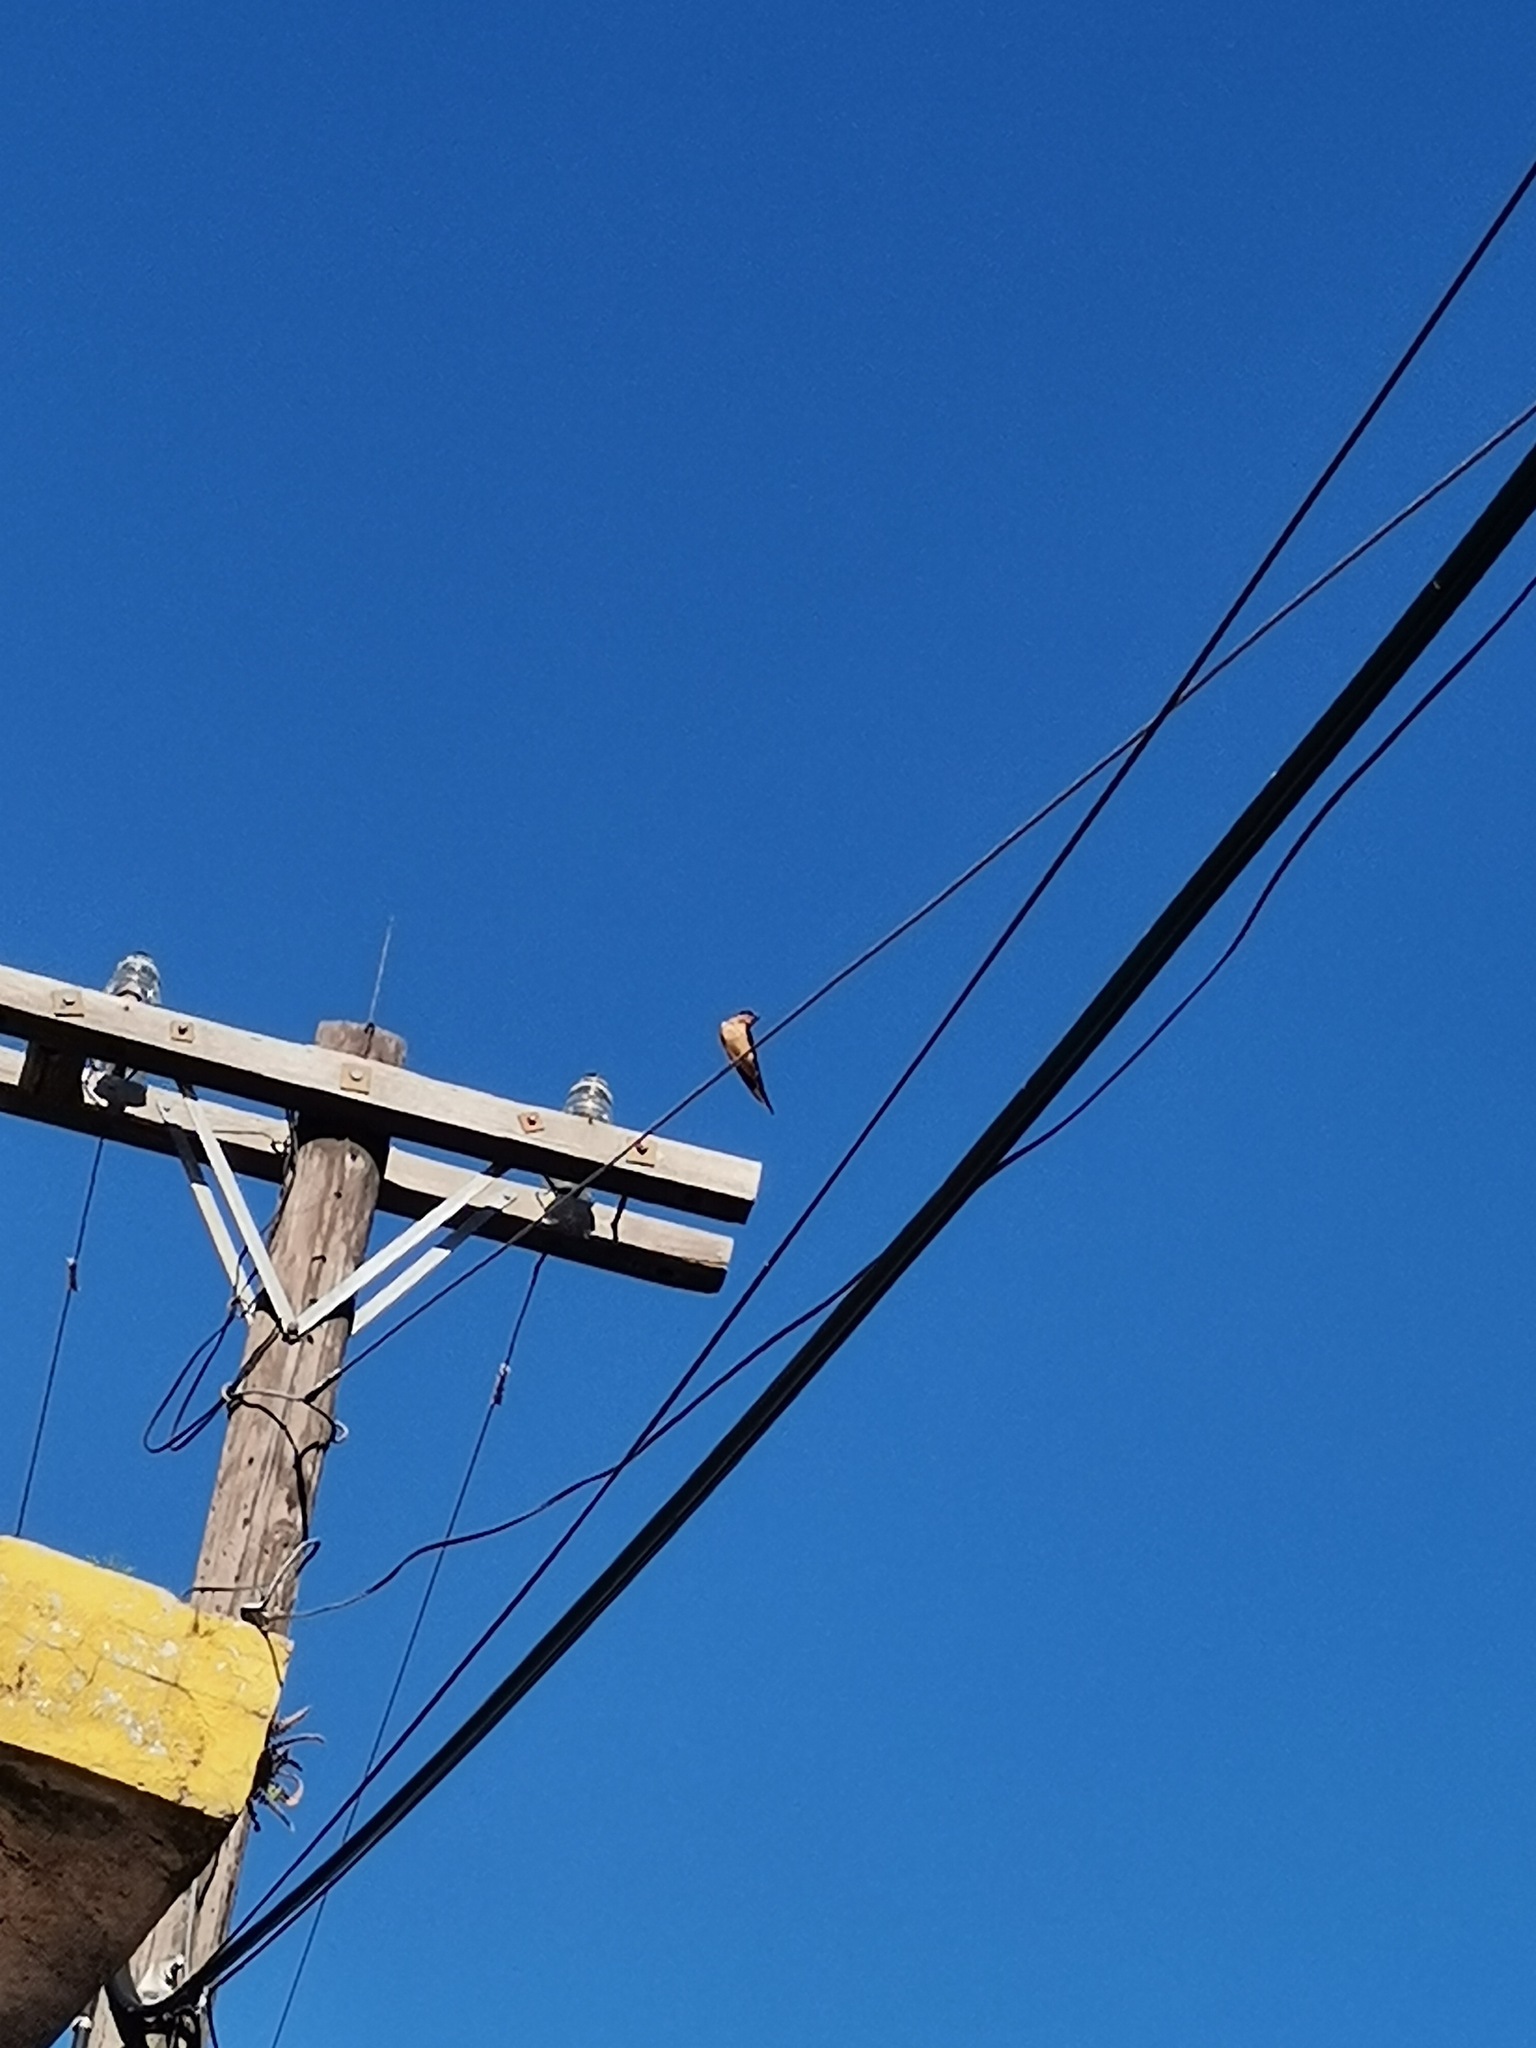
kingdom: Animalia
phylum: Chordata
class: Aves
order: Passeriformes
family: Hirundinidae
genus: Hirundo
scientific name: Hirundo rustica
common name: Barn swallow
